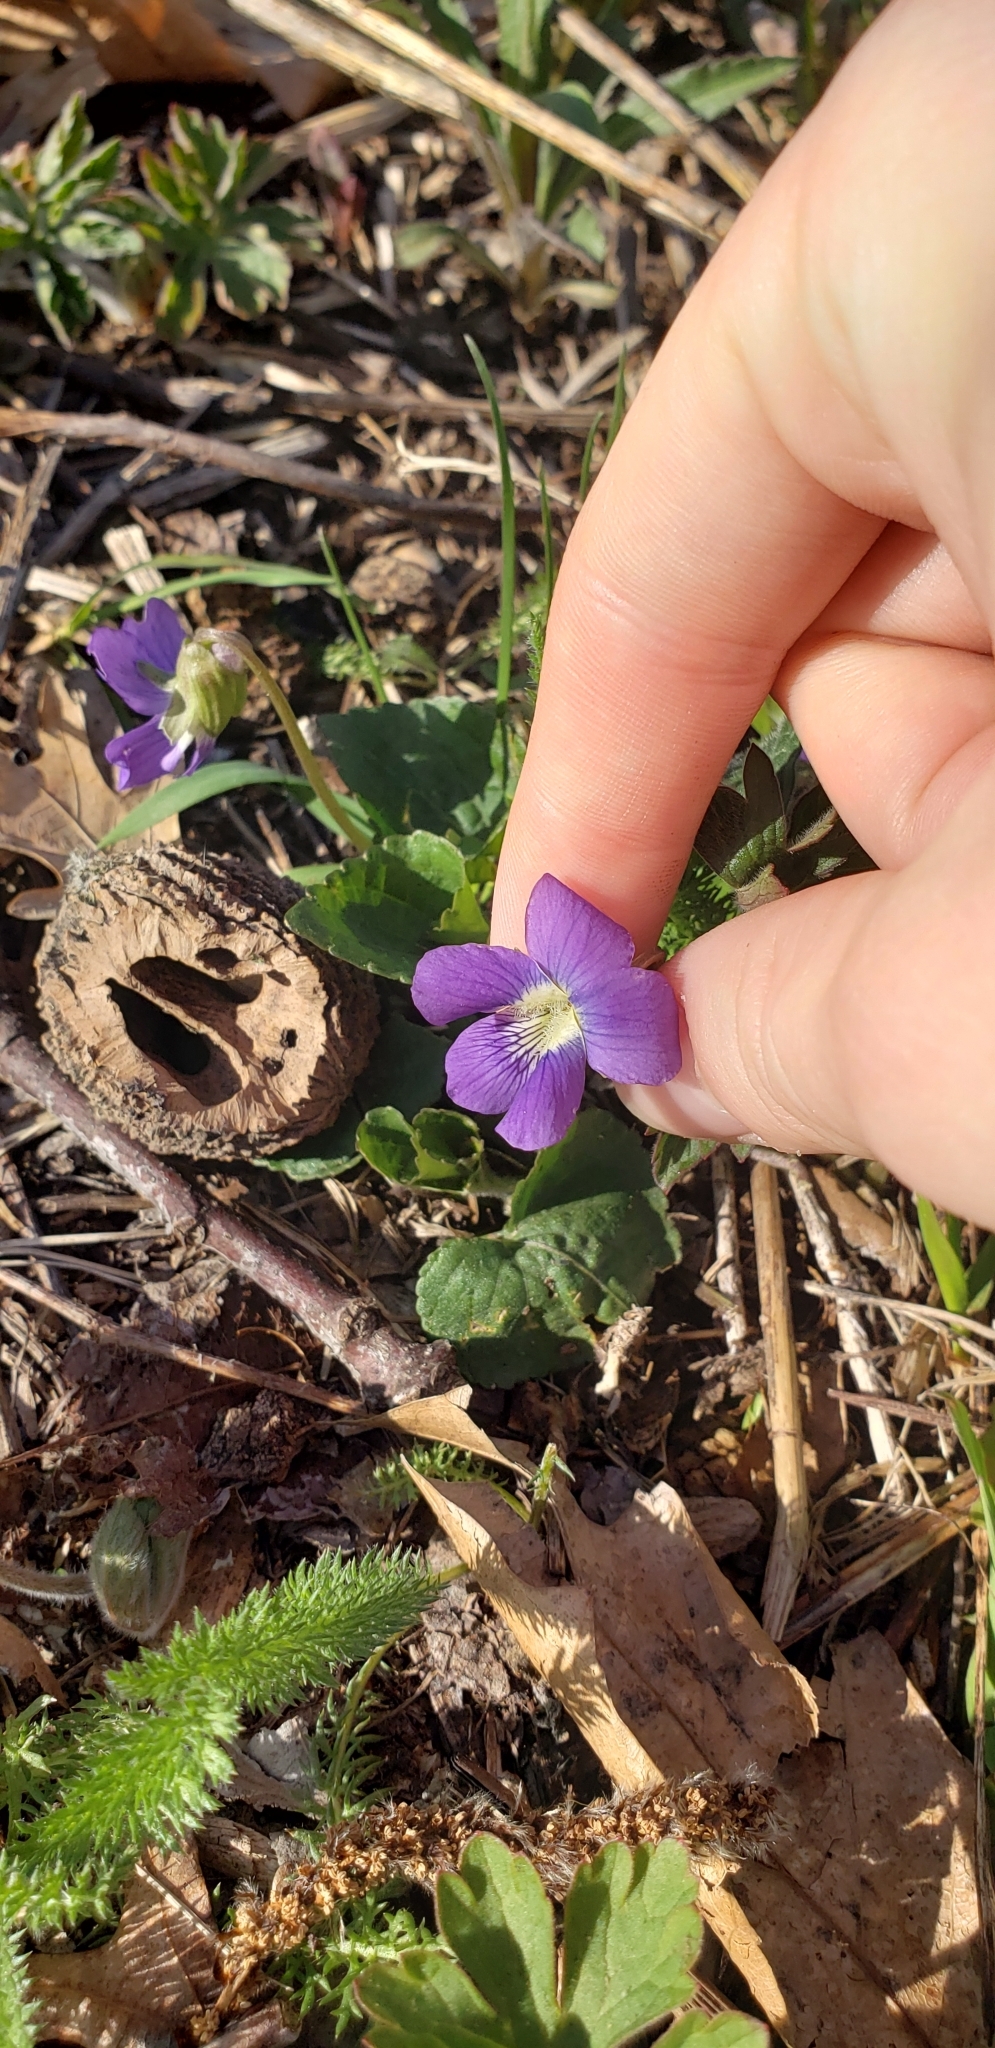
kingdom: Plantae
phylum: Tracheophyta
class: Magnoliopsida
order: Malpighiales
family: Violaceae
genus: Viola
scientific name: Viola sororia
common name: Dooryard violet
